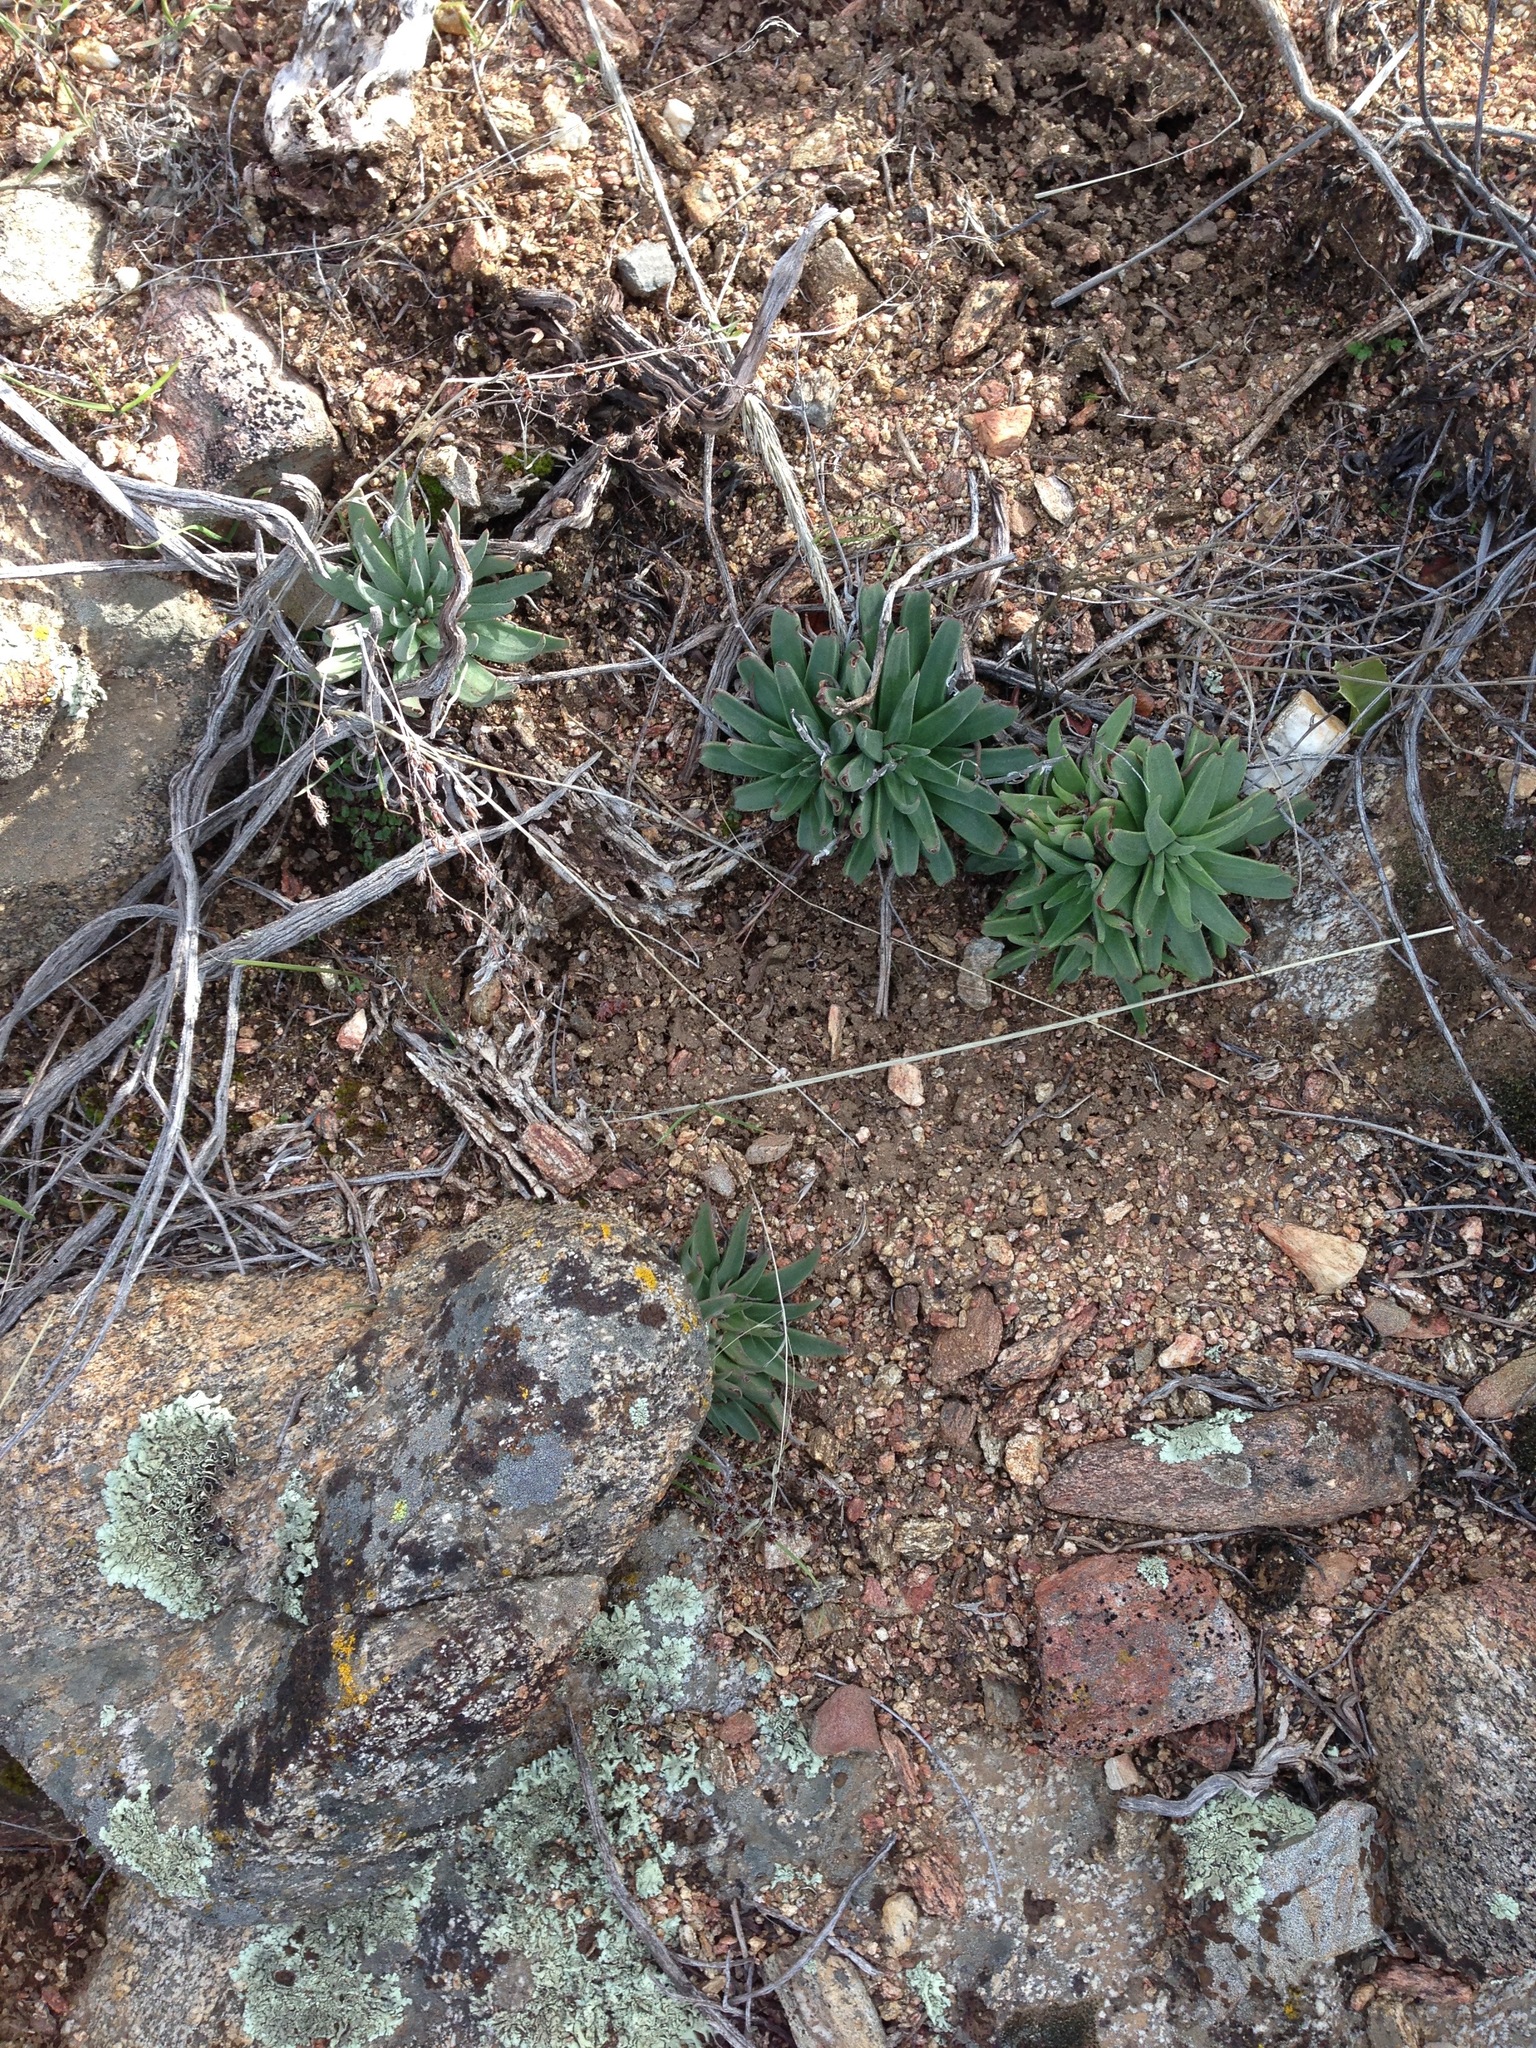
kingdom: Plantae
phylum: Tracheophyta
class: Magnoliopsida
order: Saxifragales
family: Crassulaceae
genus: Dudleya
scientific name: Dudleya abramsii
